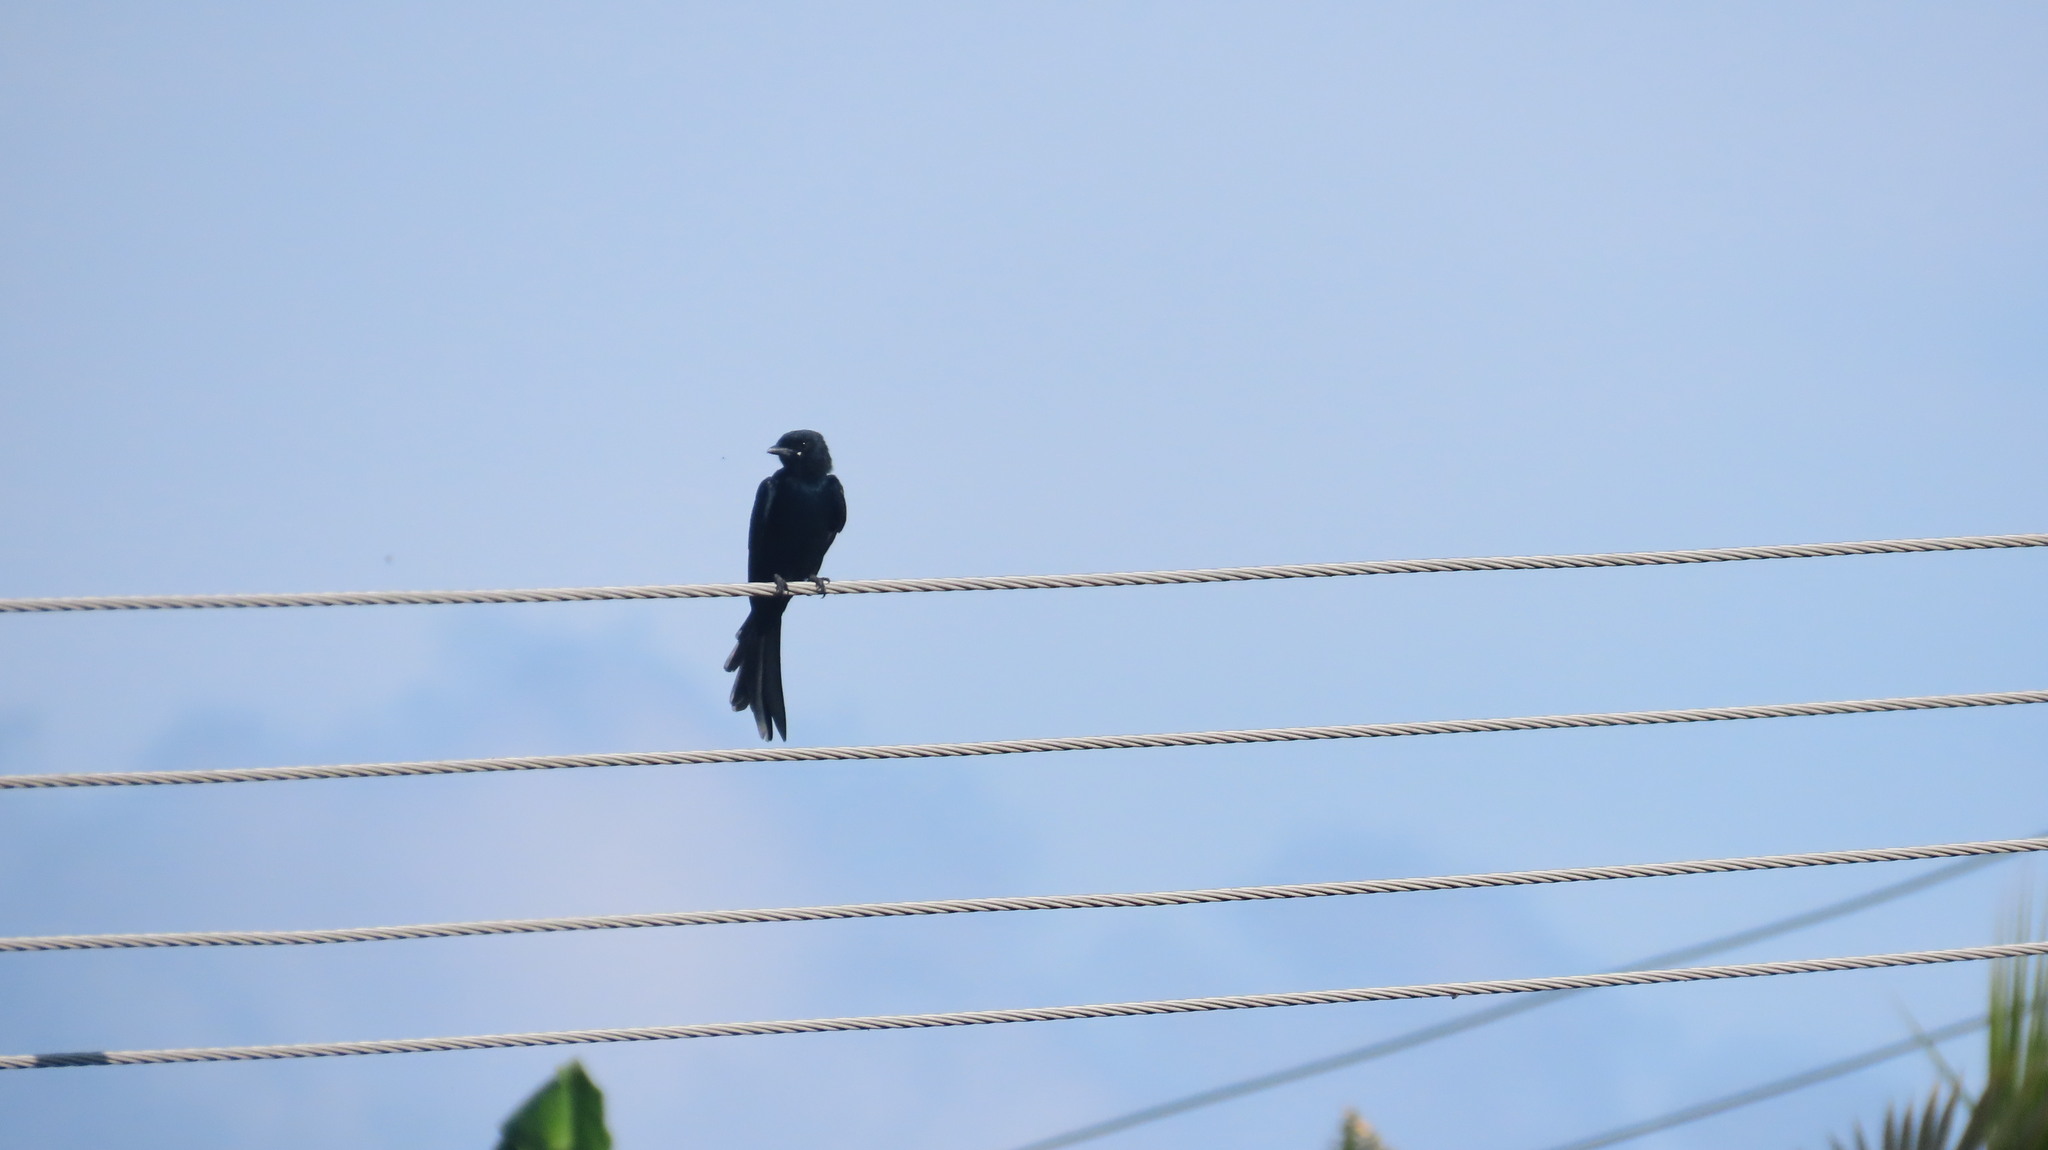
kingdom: Animalia
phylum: Chordata
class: Aves
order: Passeriformes
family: Dicruridae
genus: Dicrurus
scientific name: Dicrurus macrocercus
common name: Black drongo
